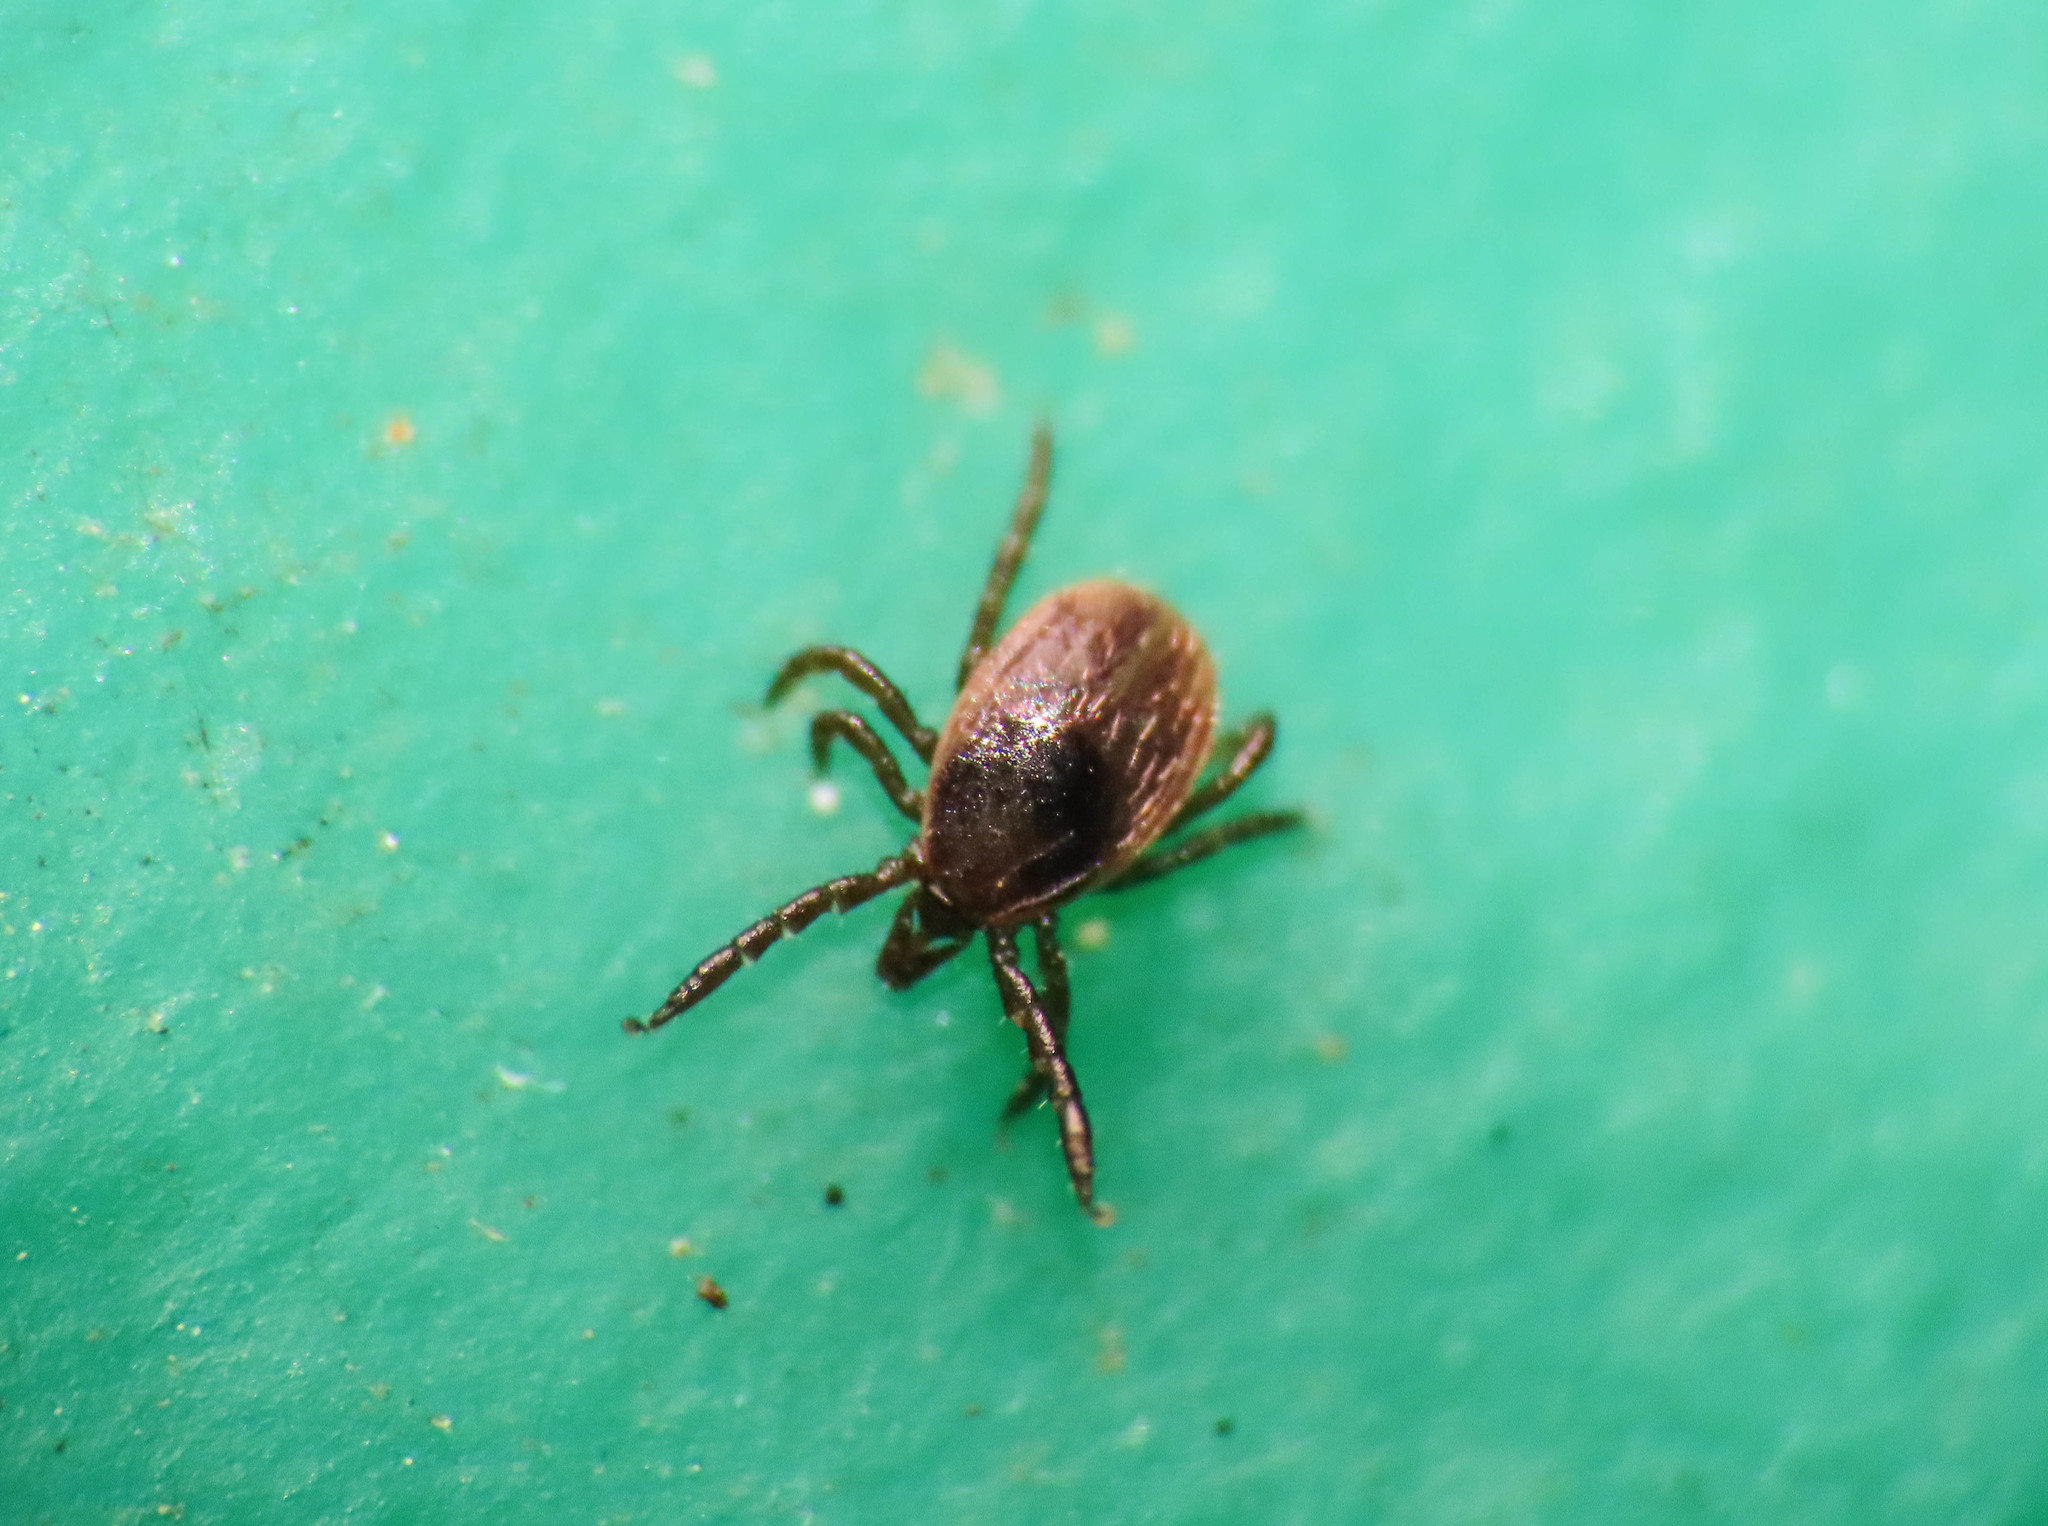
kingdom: Animalia
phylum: Arthropoda
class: Arachnida
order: Ixodida
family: Ixodidae
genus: Ixodes
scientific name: Ixodes ricinus
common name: Castor bean tick
